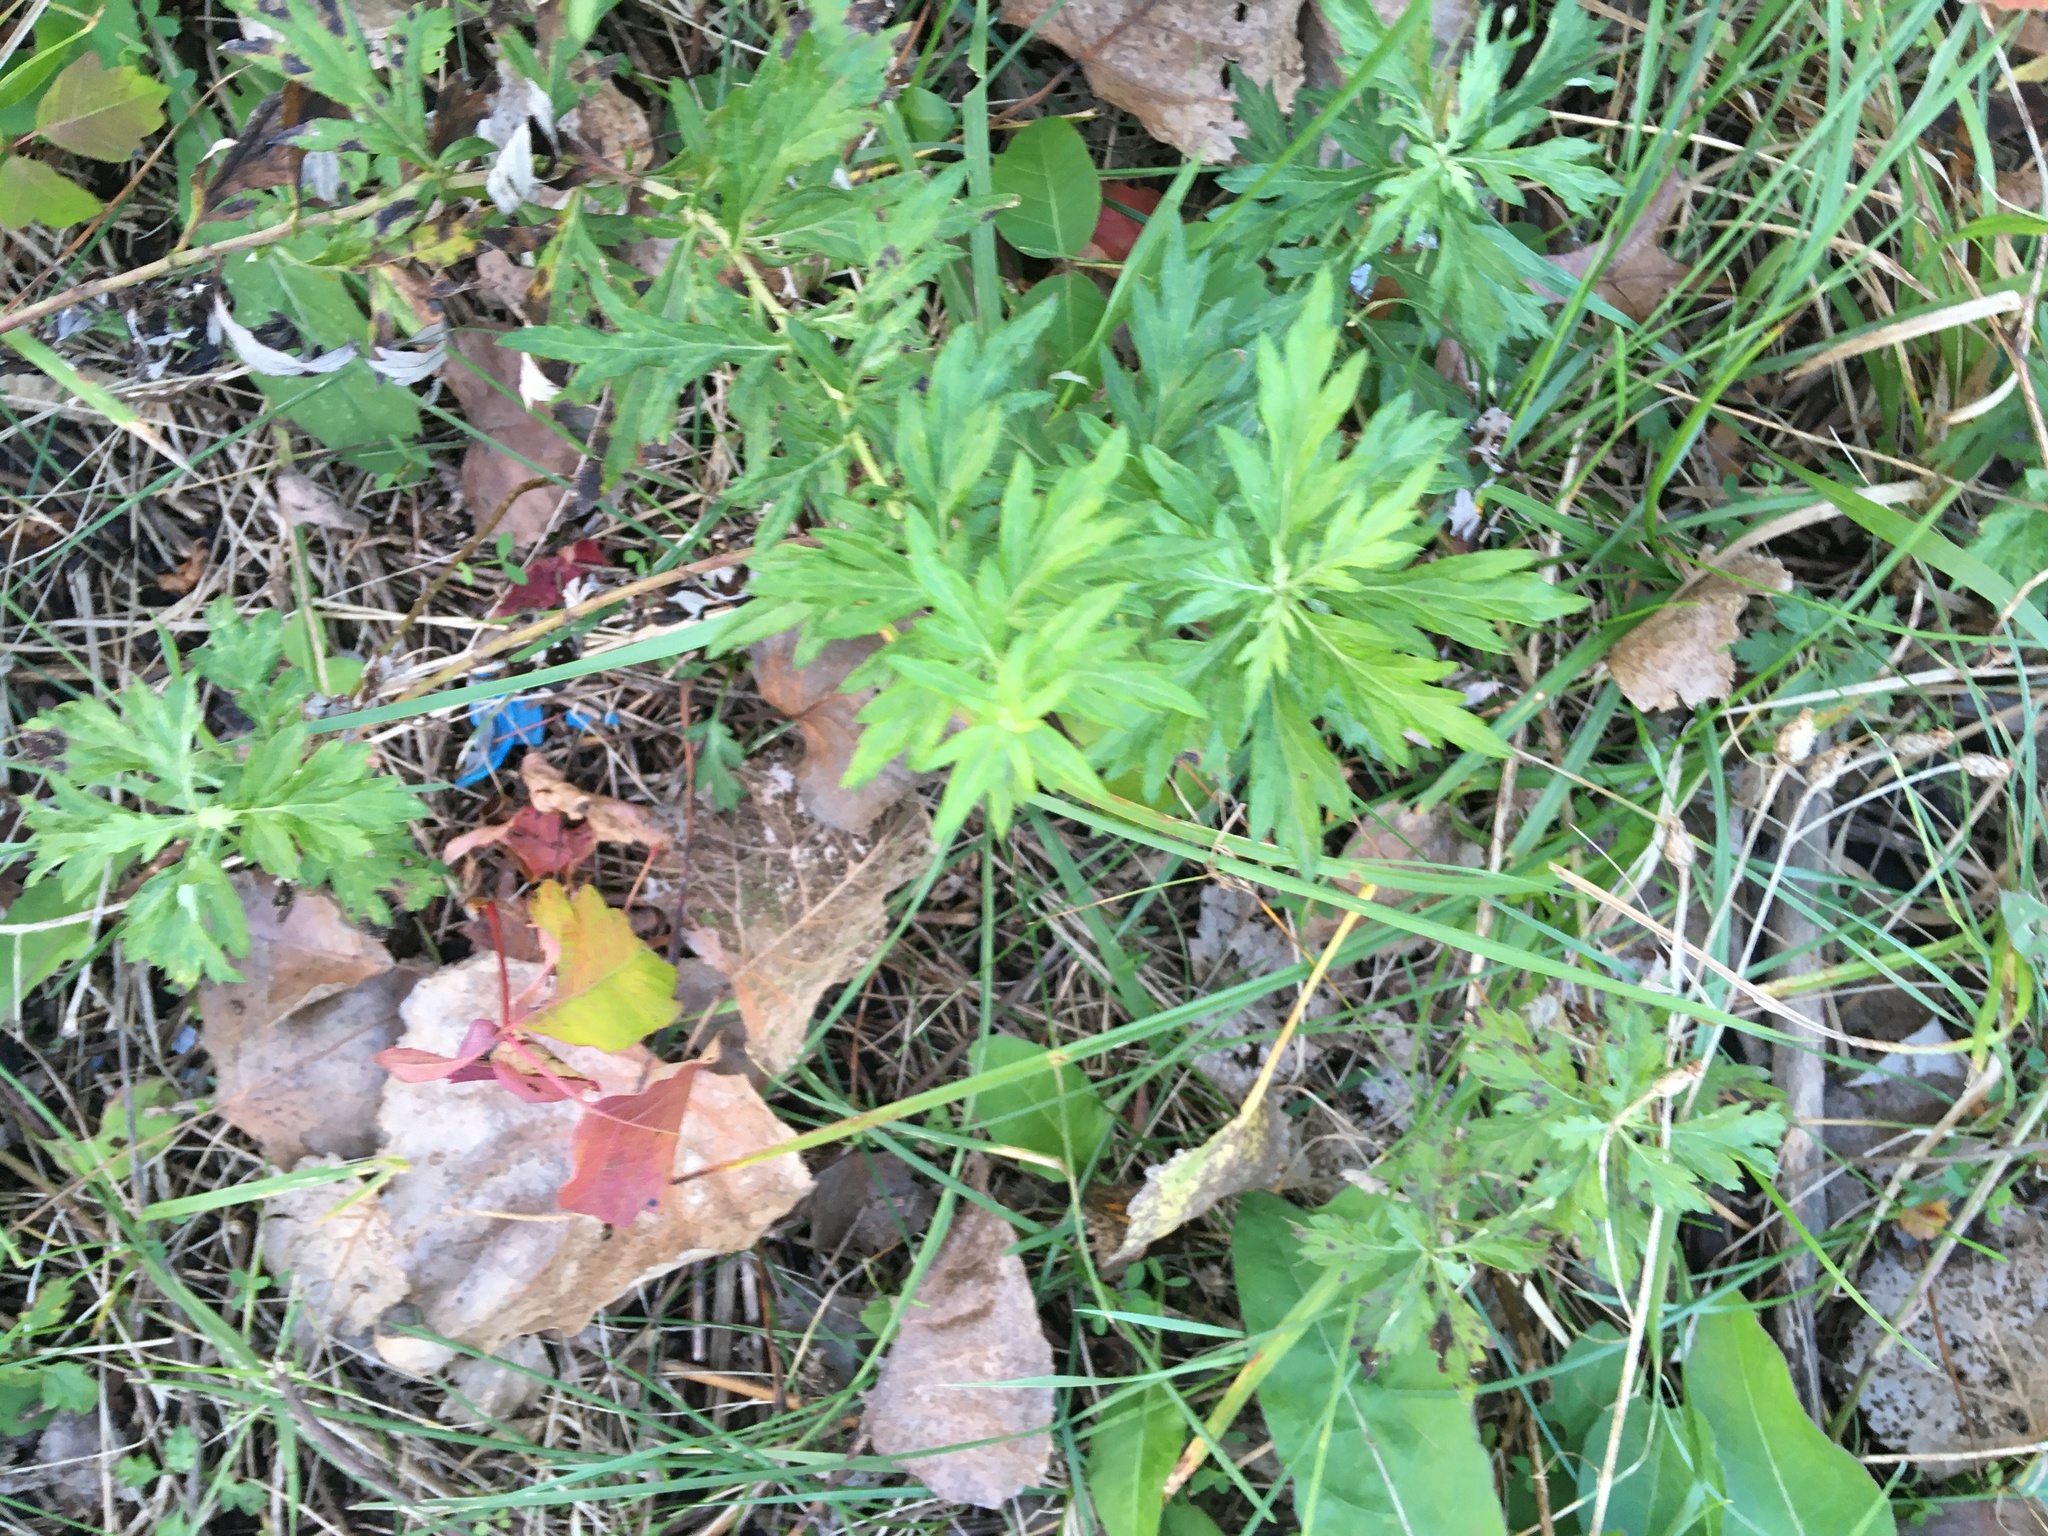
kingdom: Plantae
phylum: Tracheophyta
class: Magnoliopsida
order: Asterales
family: Asteraceae
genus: Artemisia
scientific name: Artemisia vulgaris
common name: Mugwort
